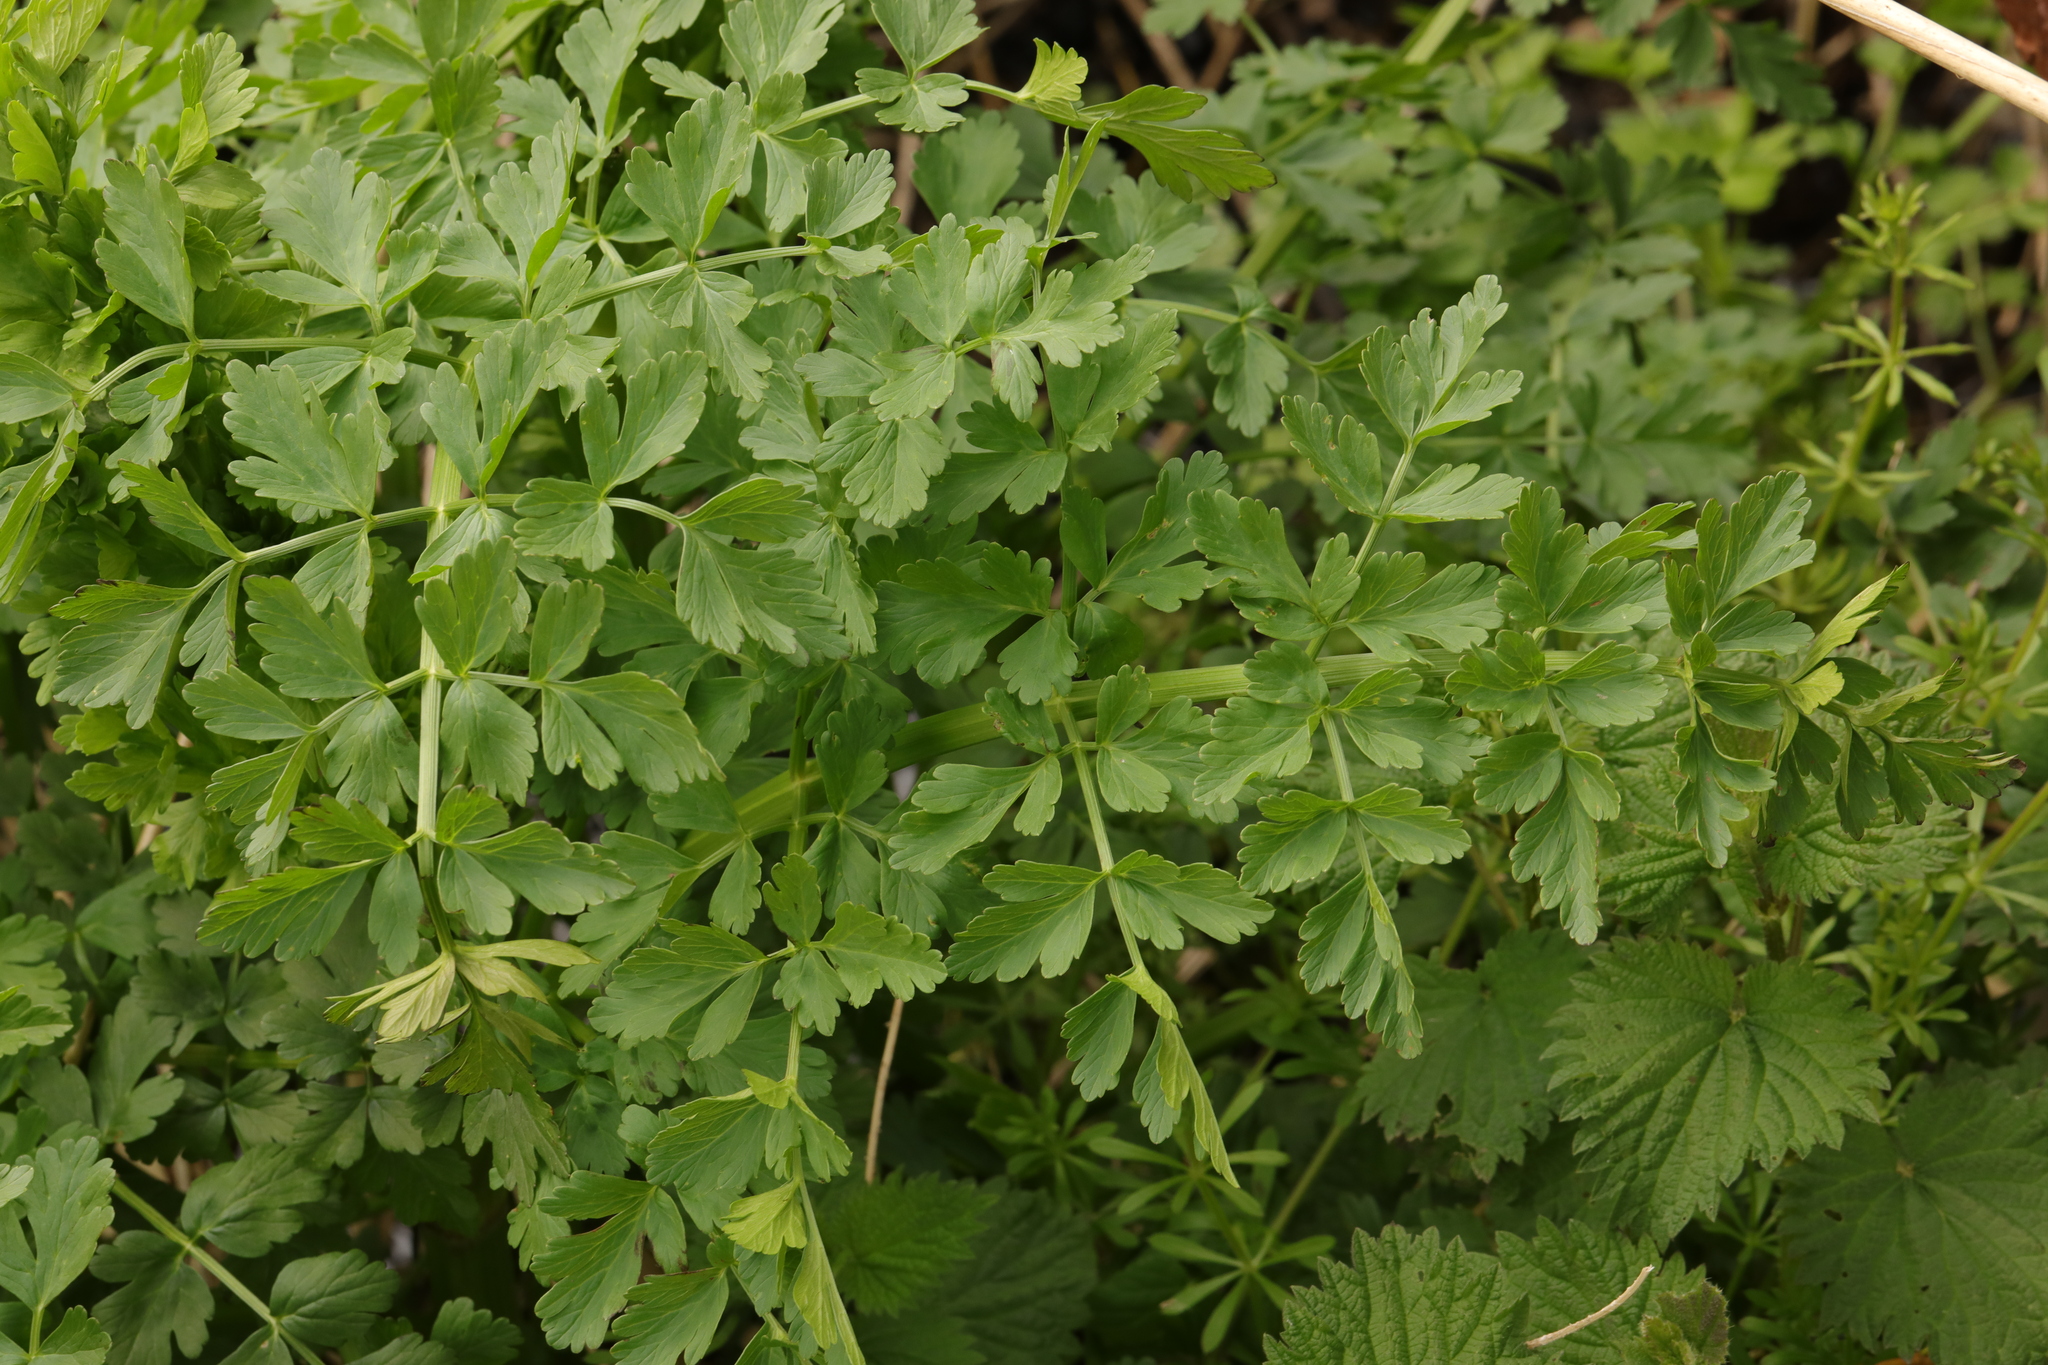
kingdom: Plantae
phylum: Tracheophyta
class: Magnoliopsida
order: Apiales
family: Apiaceae
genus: Oenanthe
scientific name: Oenanthe crocata
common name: Hemlock water-dropwort
